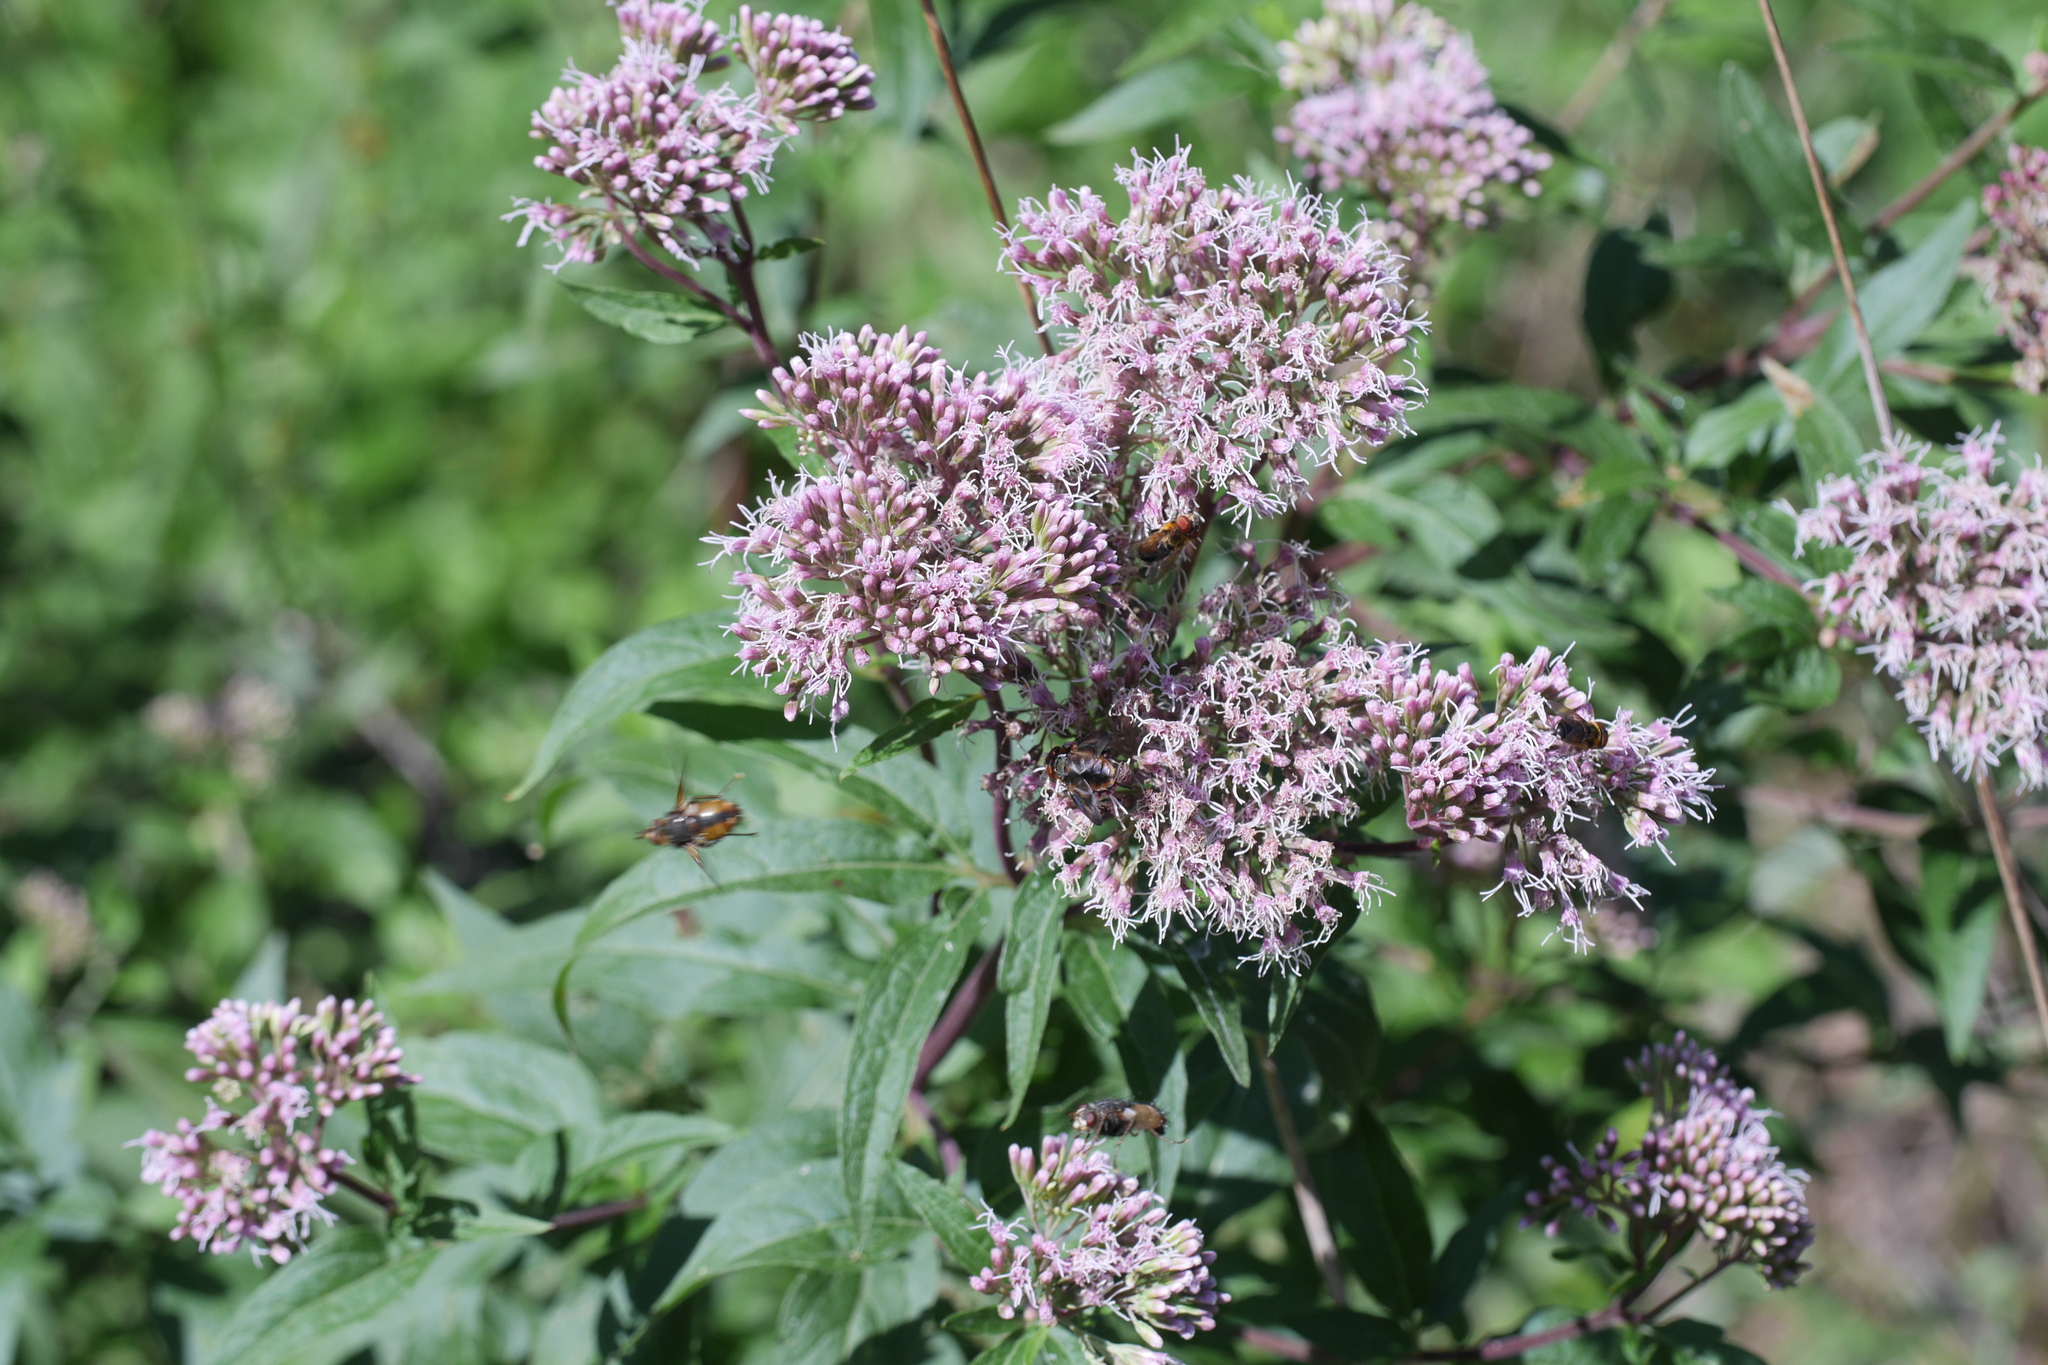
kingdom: Plantae
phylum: Tracheophyta
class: Magnoliopsida
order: Asterales
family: Asteraceae
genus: Eupatorium
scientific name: Eupatorium cannabinum
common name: Hemp-agrimony
